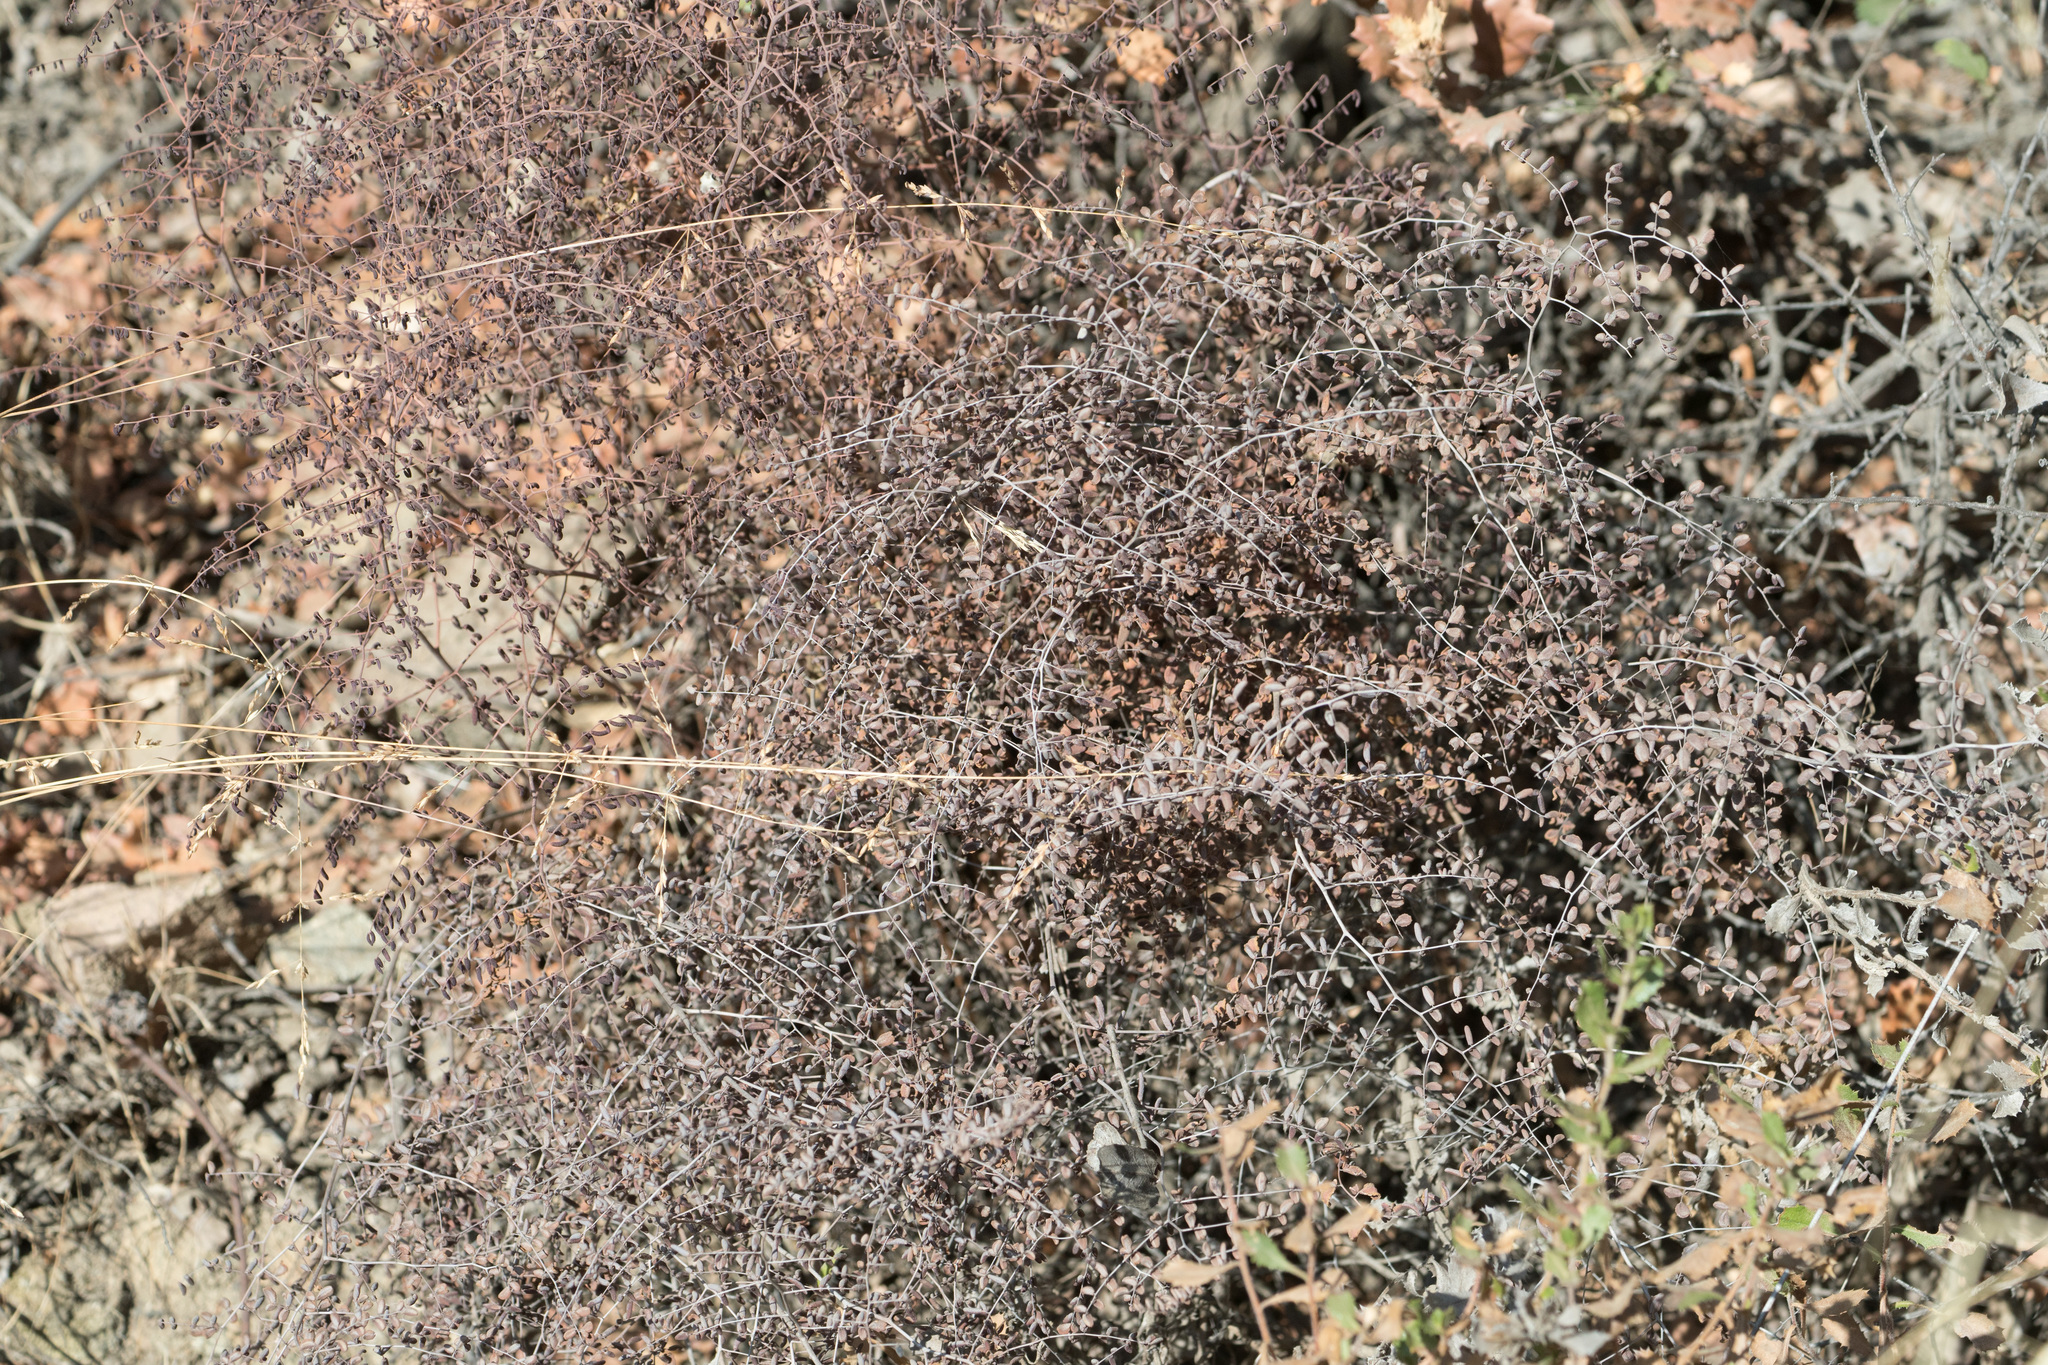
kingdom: Plantae
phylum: Tracheophyta
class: Polypodiopsida
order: Polypodiales
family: Pteridaceae
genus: Pellaea
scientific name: Pellaea andromedifolia
